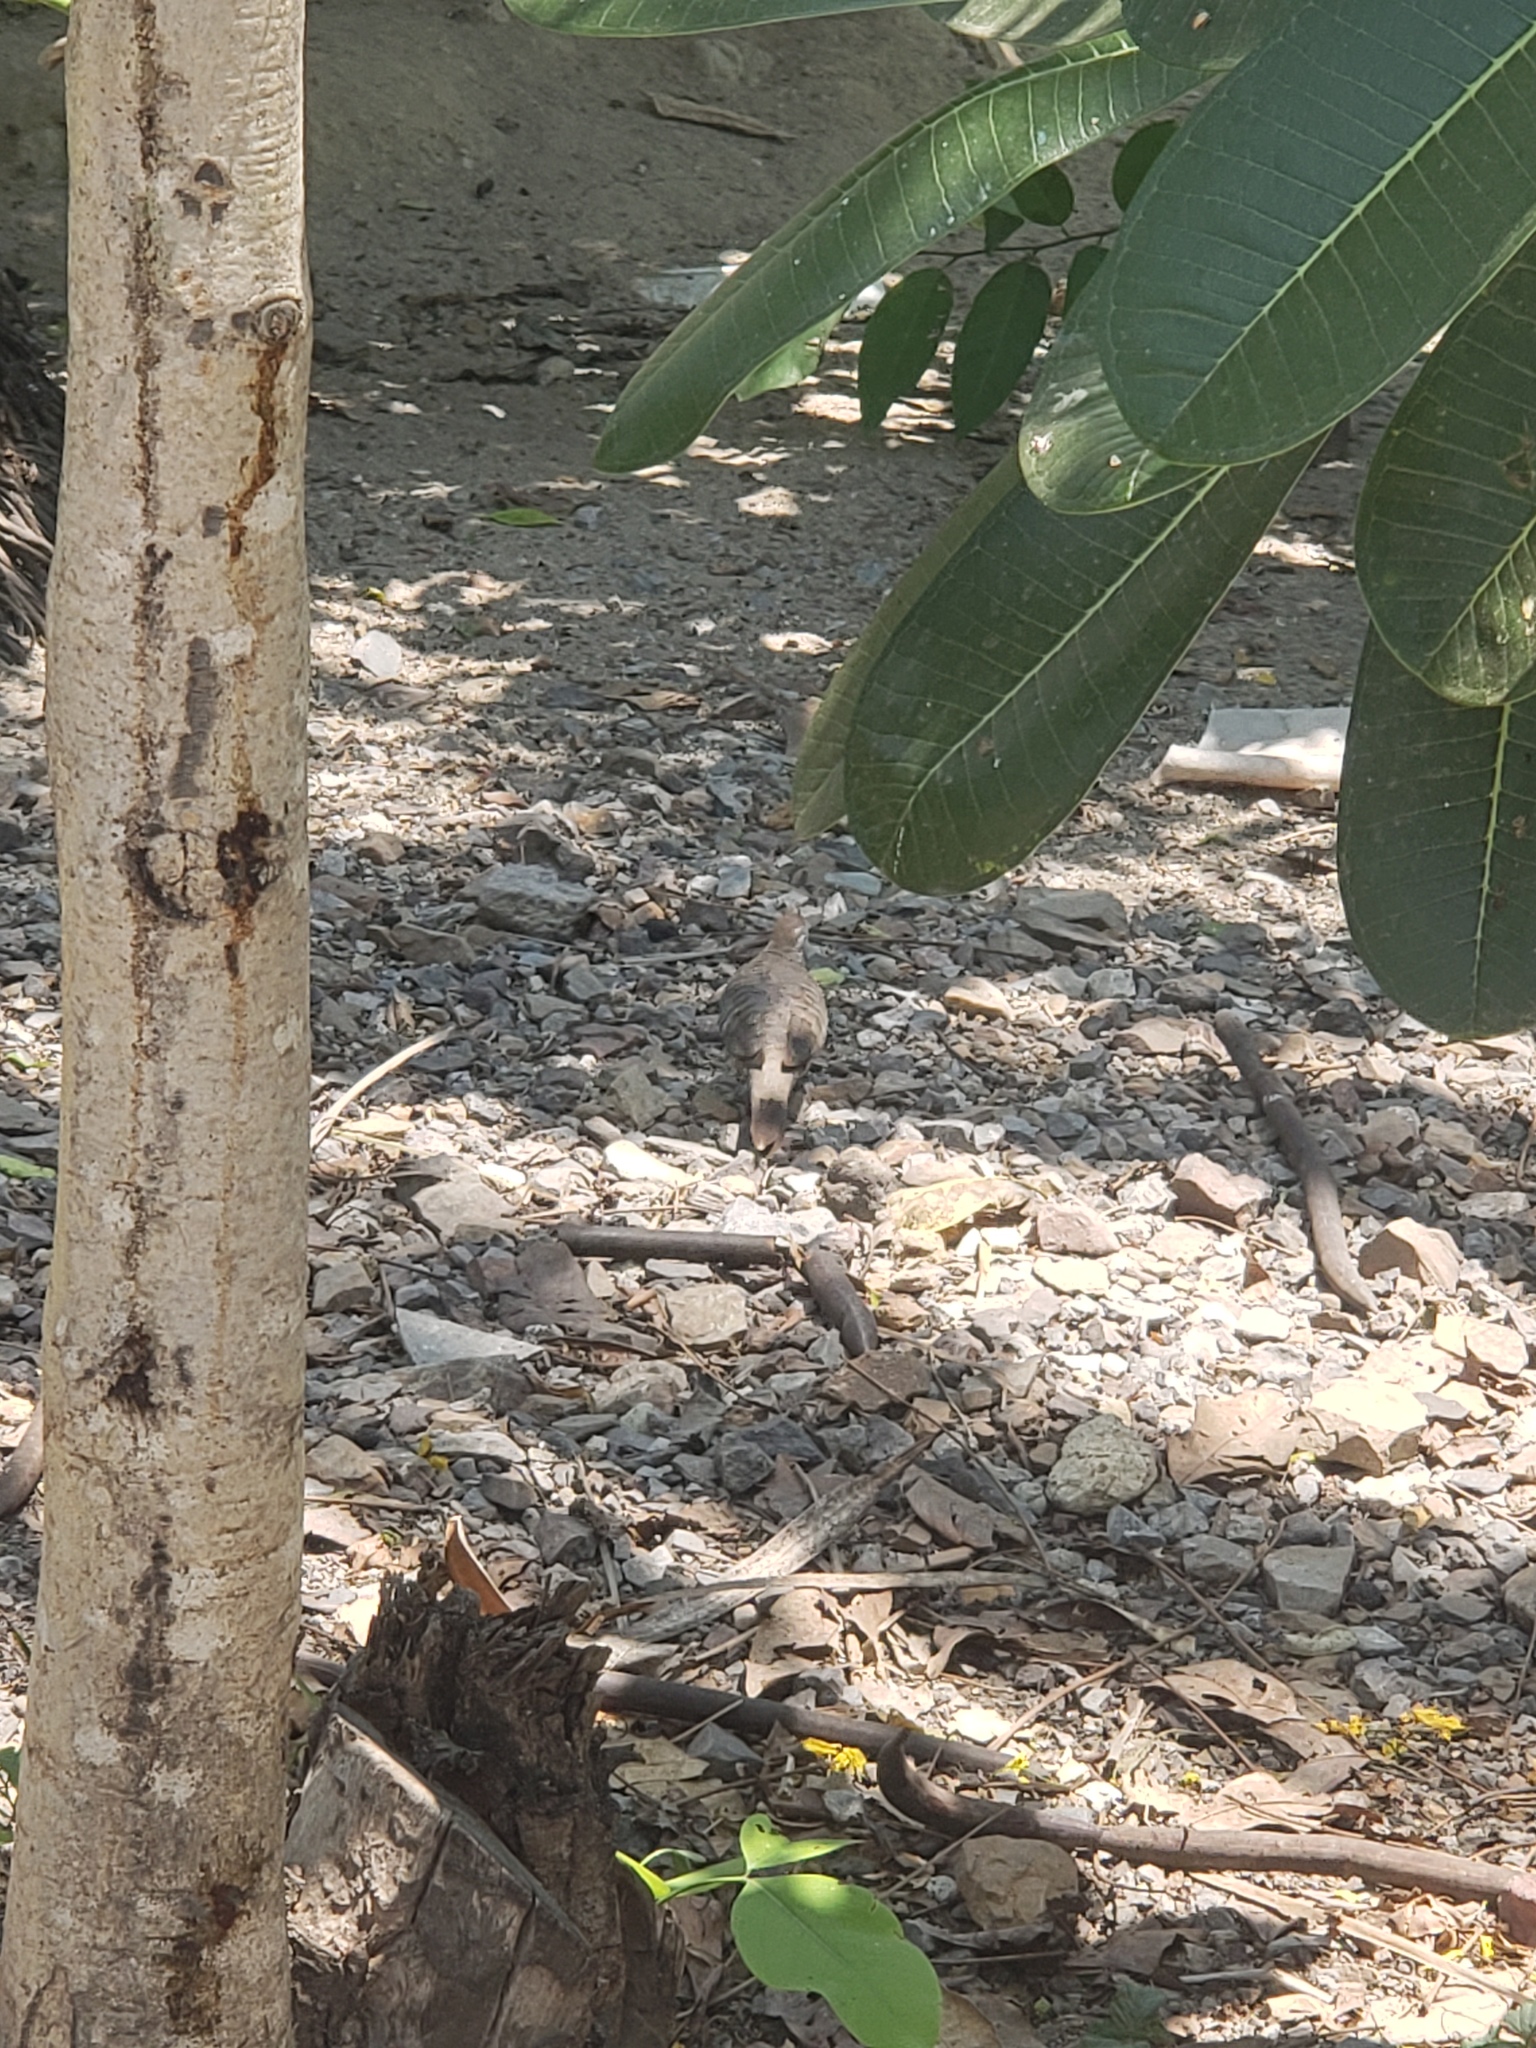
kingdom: Animalia
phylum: Chordata
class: Aves
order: Columbiformes
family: Columbidae
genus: Geopelia
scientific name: Geopelia striata
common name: Zebra dove
